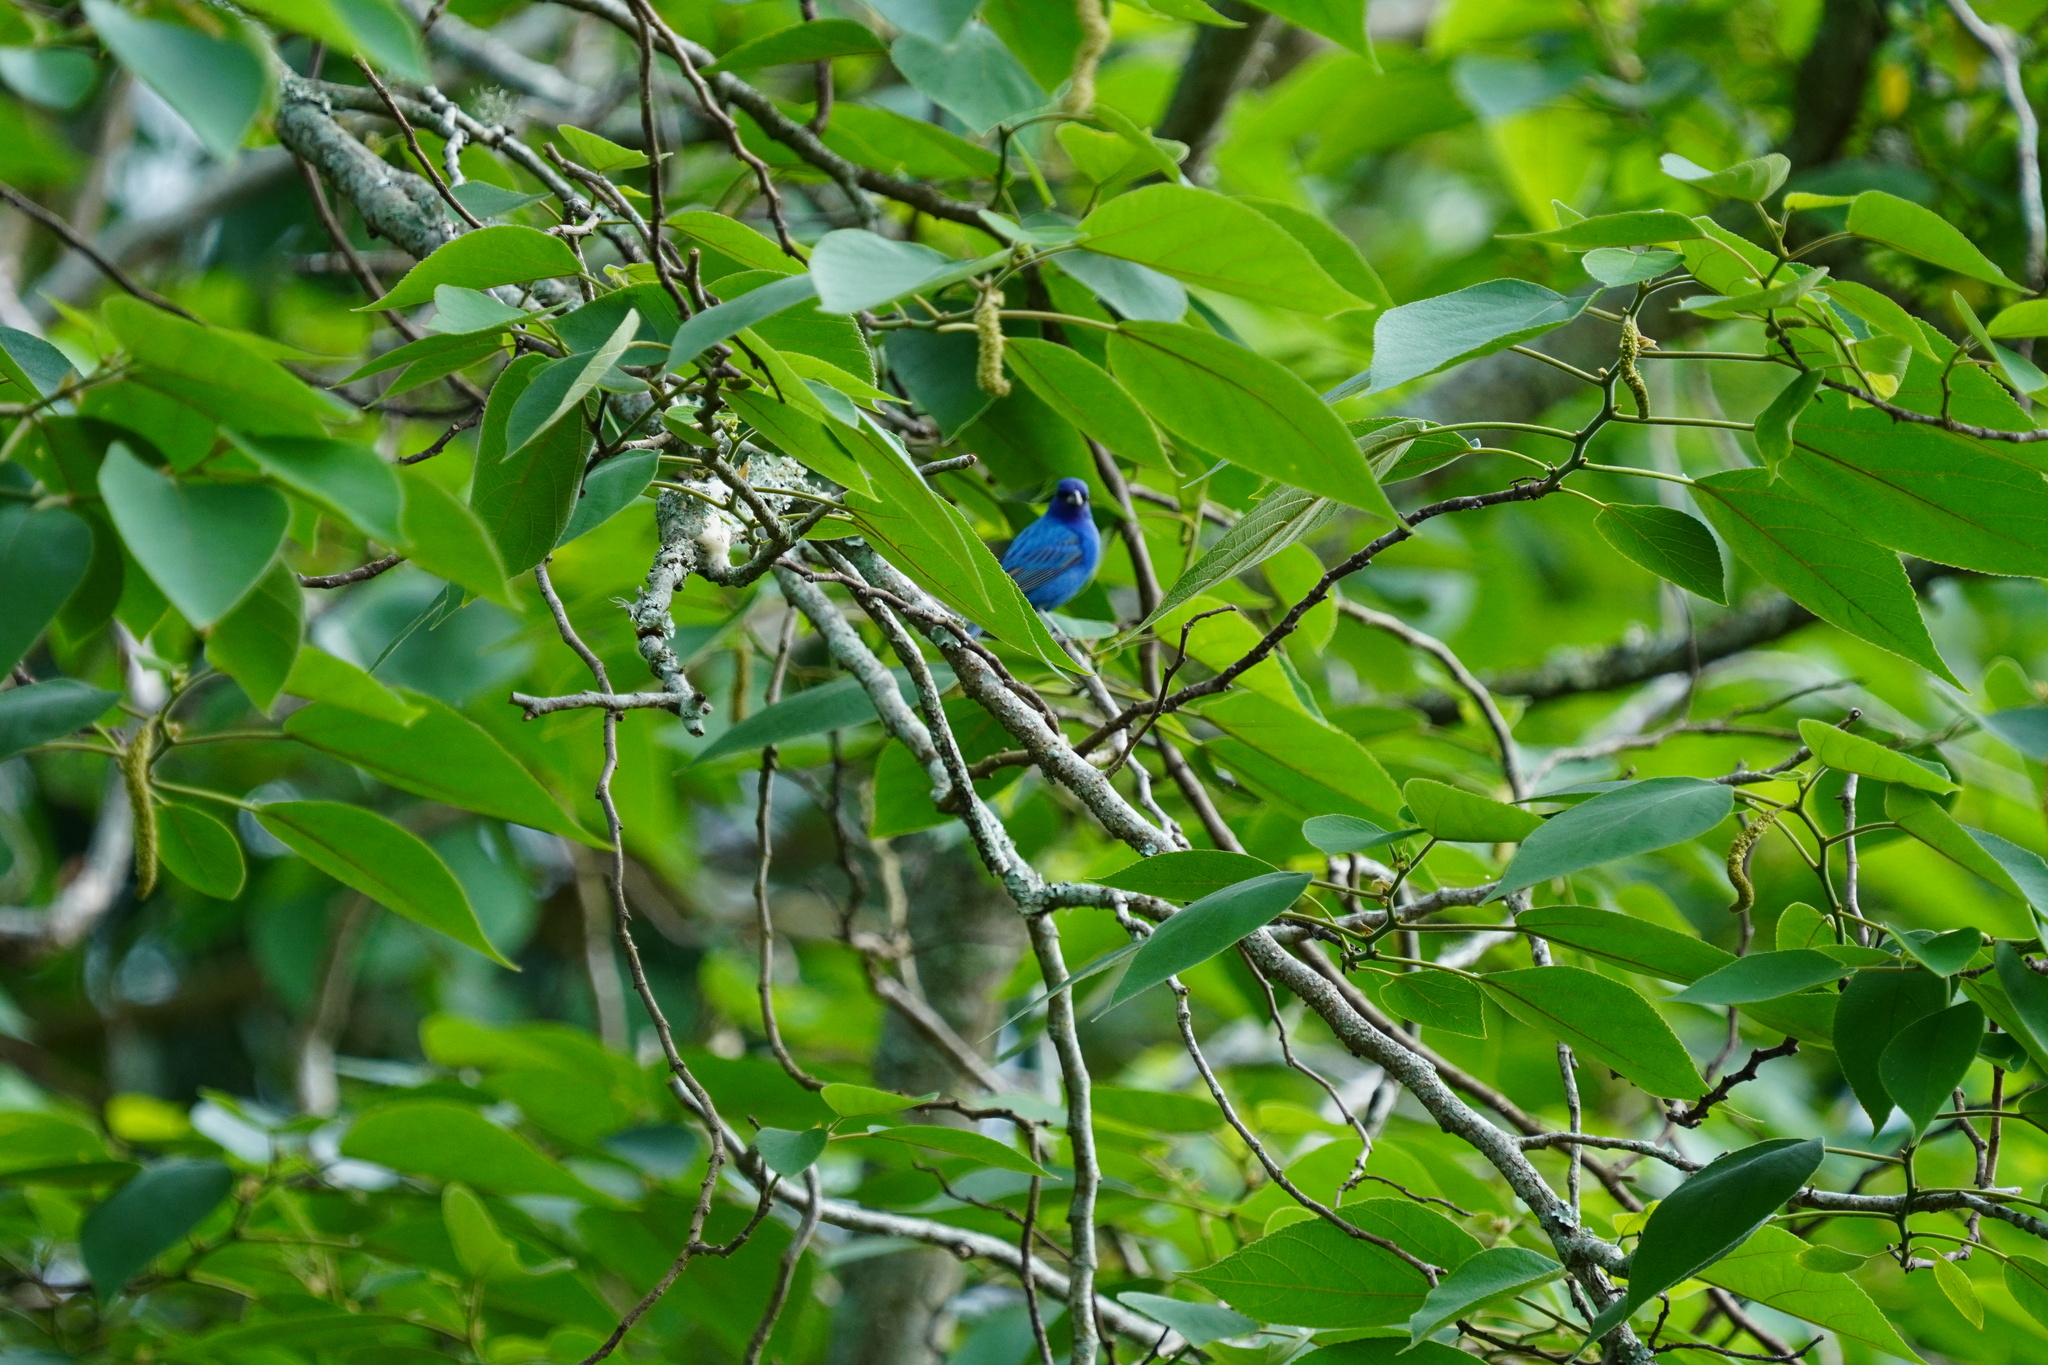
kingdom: Animalia
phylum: Chordata
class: Aves
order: Passeriformes
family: Cardinalidae
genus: Passerina
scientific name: Passerina cyanea
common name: Indigo bunting
